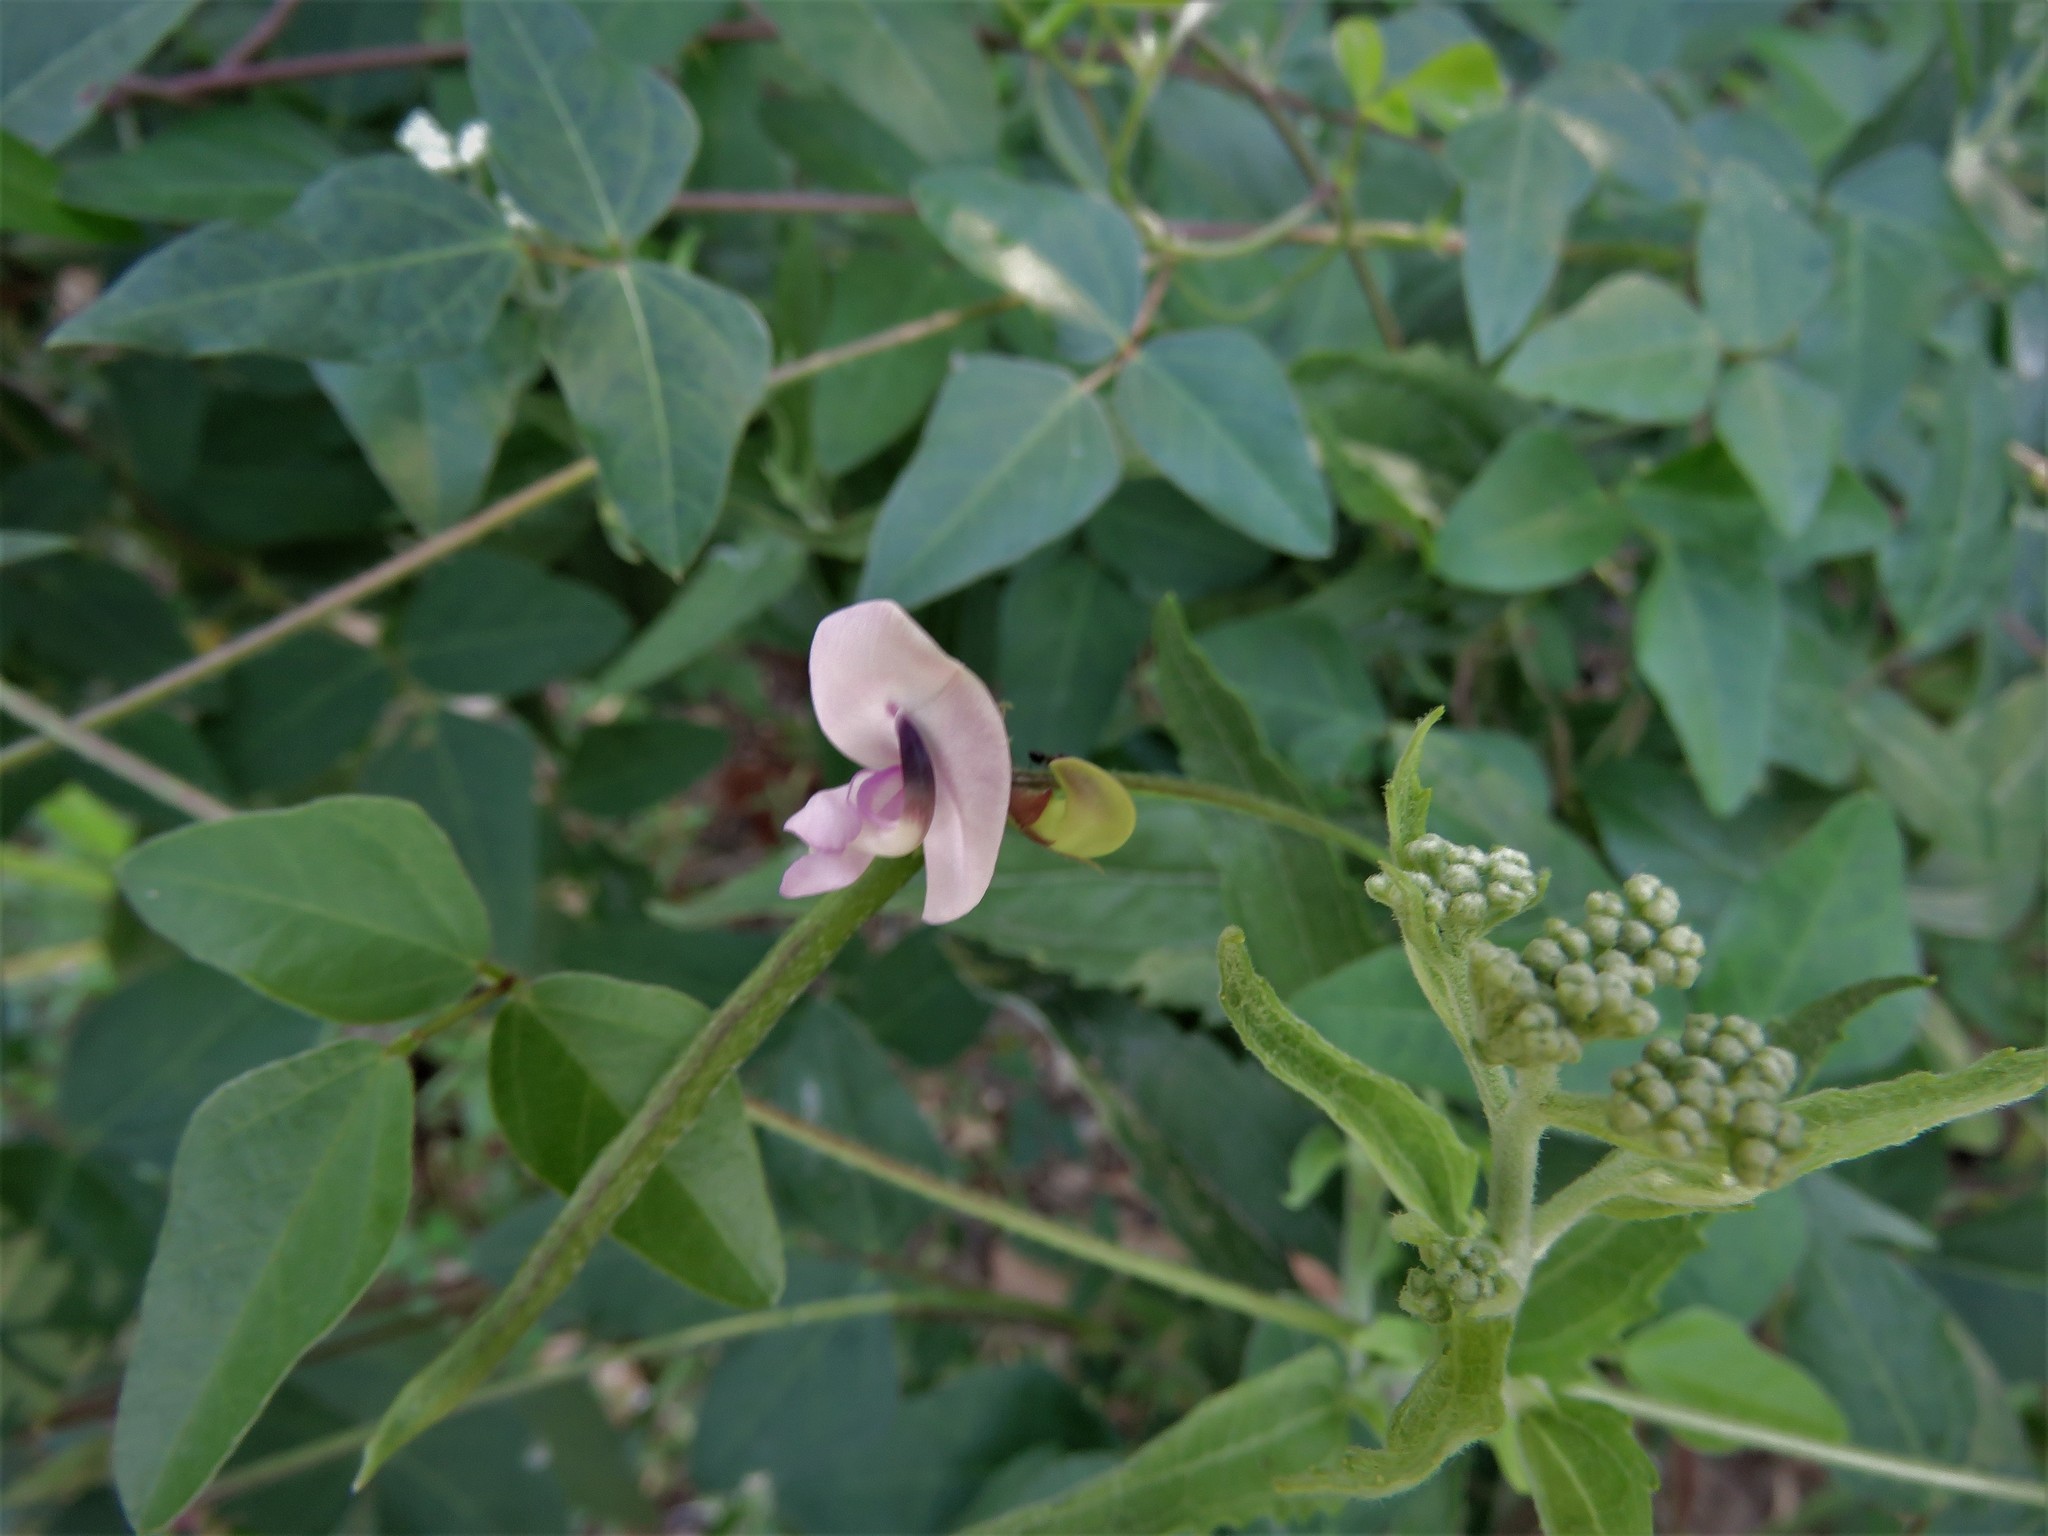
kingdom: Plantae
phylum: Tracheophyta
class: Magnoliopsida
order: Fabales
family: Fabaceae
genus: Strophostyles
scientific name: Strophostyles helvola
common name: Trailing wild bean
